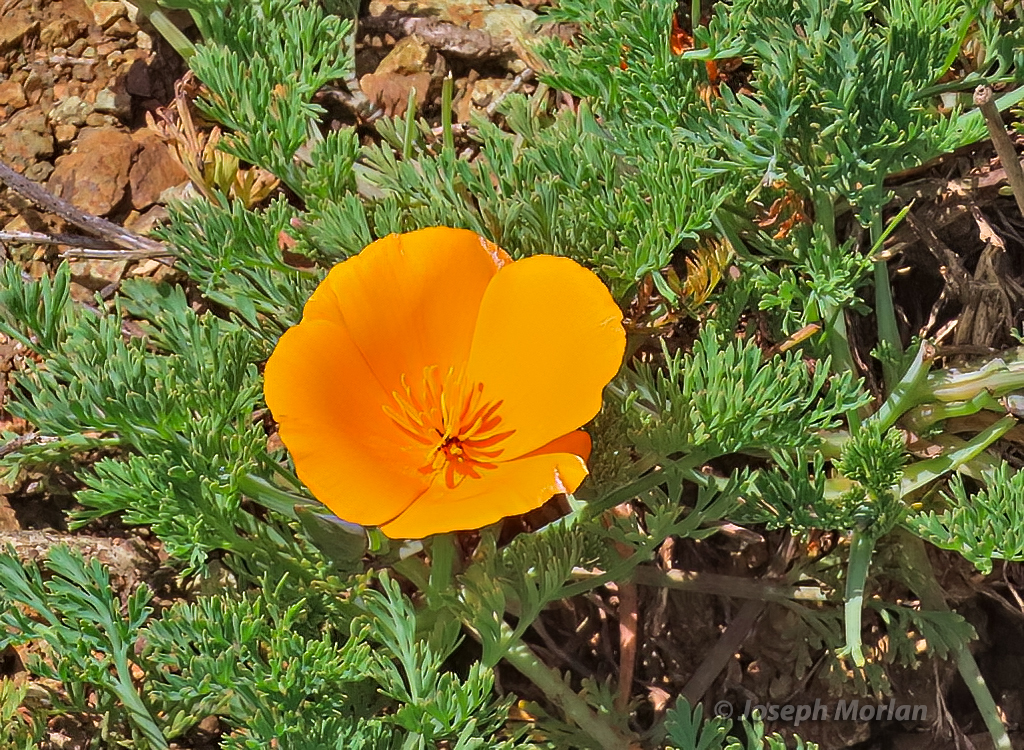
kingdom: Plantae
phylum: Tracheophyta
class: Magnoliopsida
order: Ranunculales
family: Papaveraceae
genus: Eschscholzia
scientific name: Eschscholzia californica
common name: California poppy
